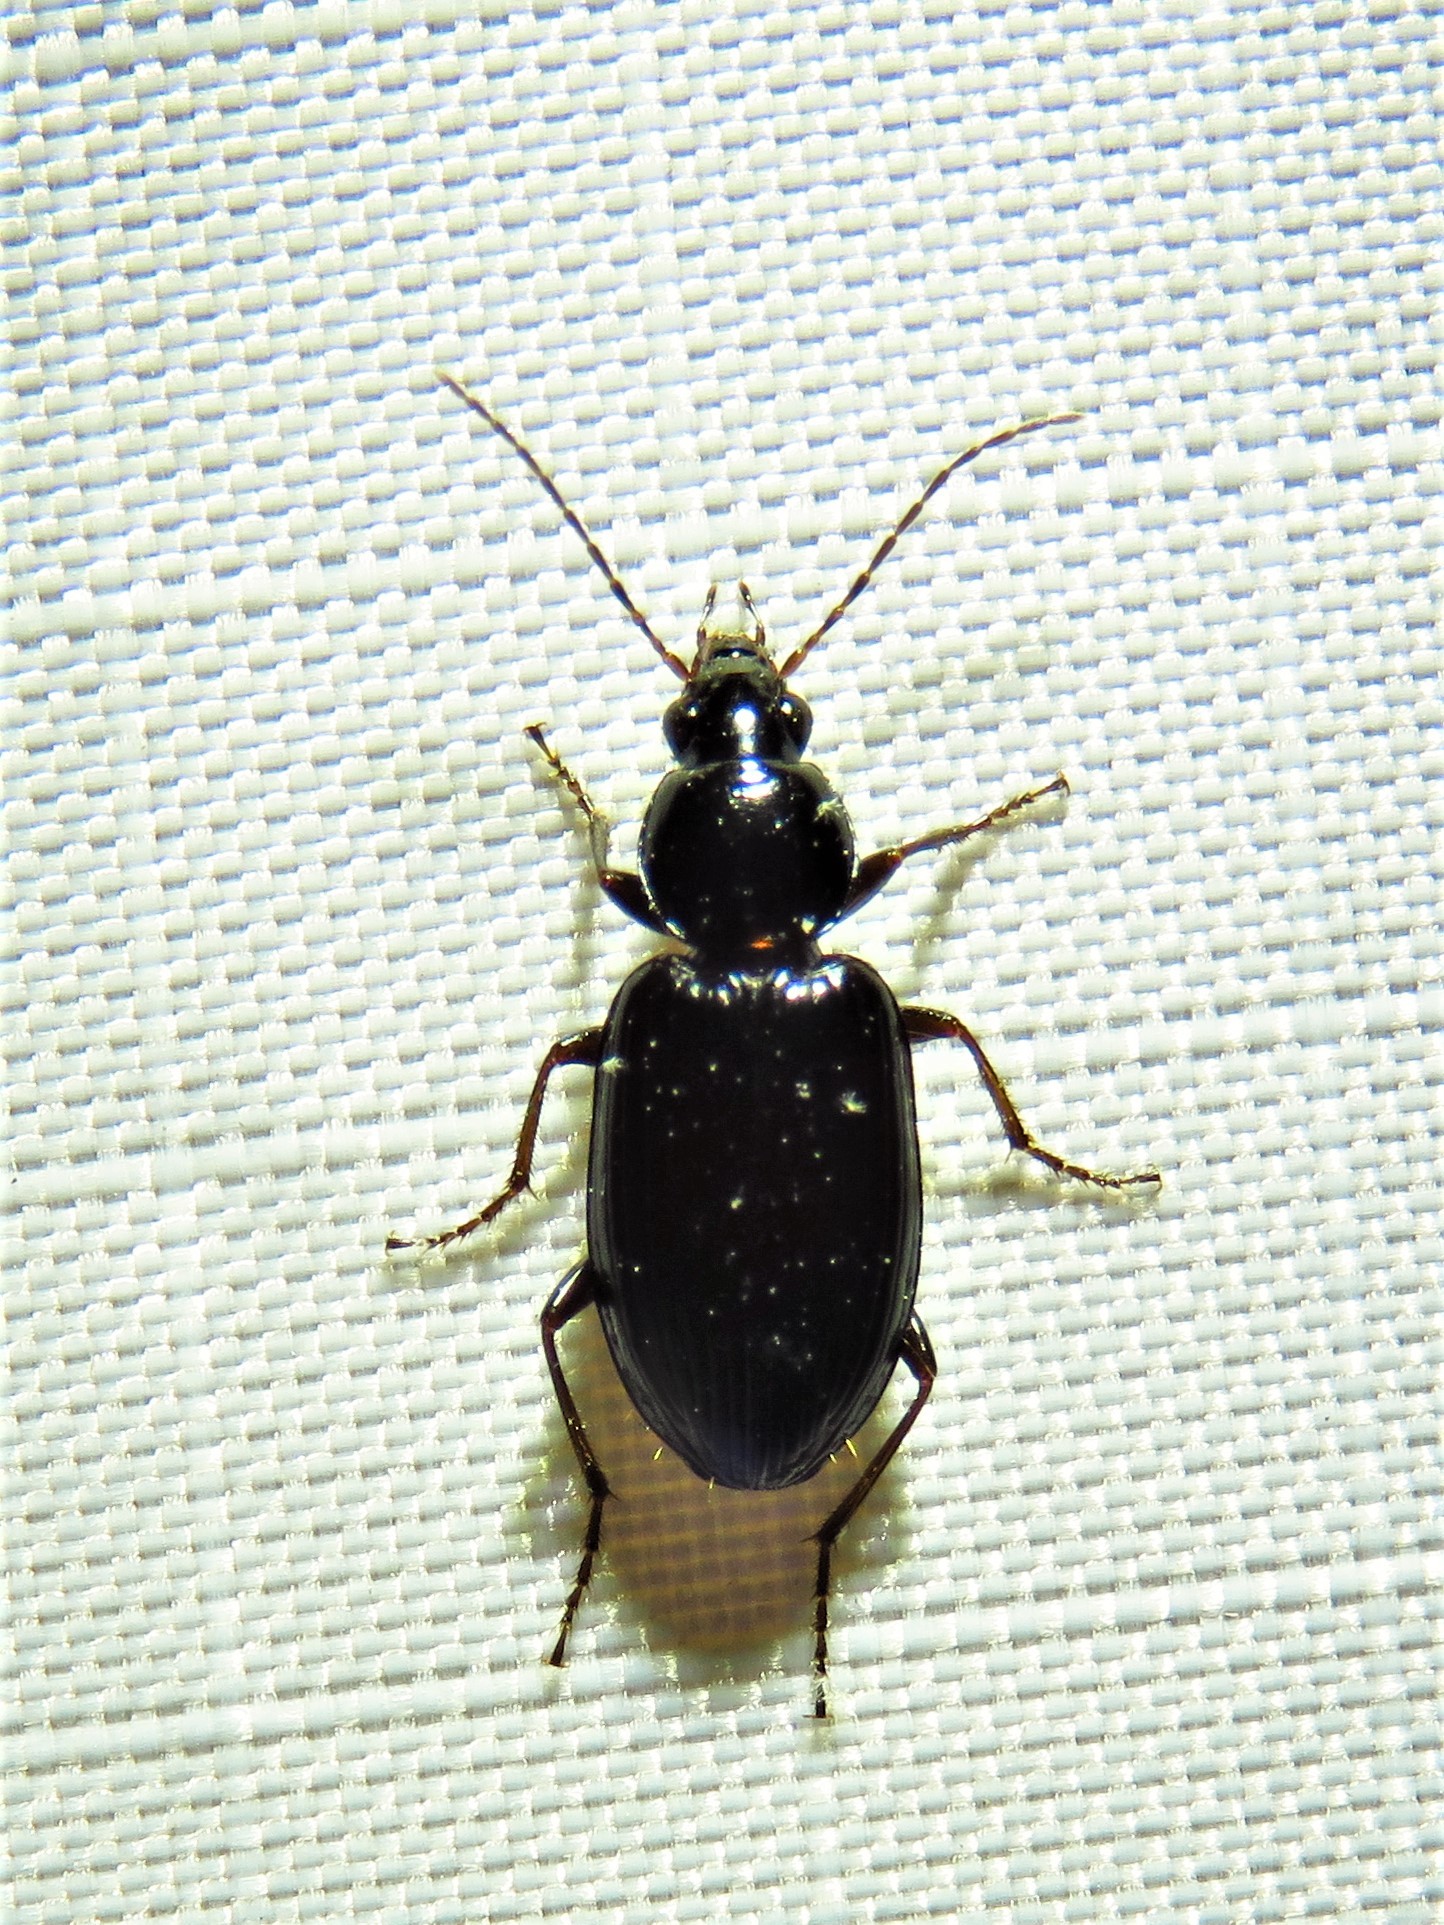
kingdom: Animalia
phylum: Arthropoda
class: Insecta
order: Coleoptera
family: Carabidae
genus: Agonum
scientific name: Agonum punctiforme
